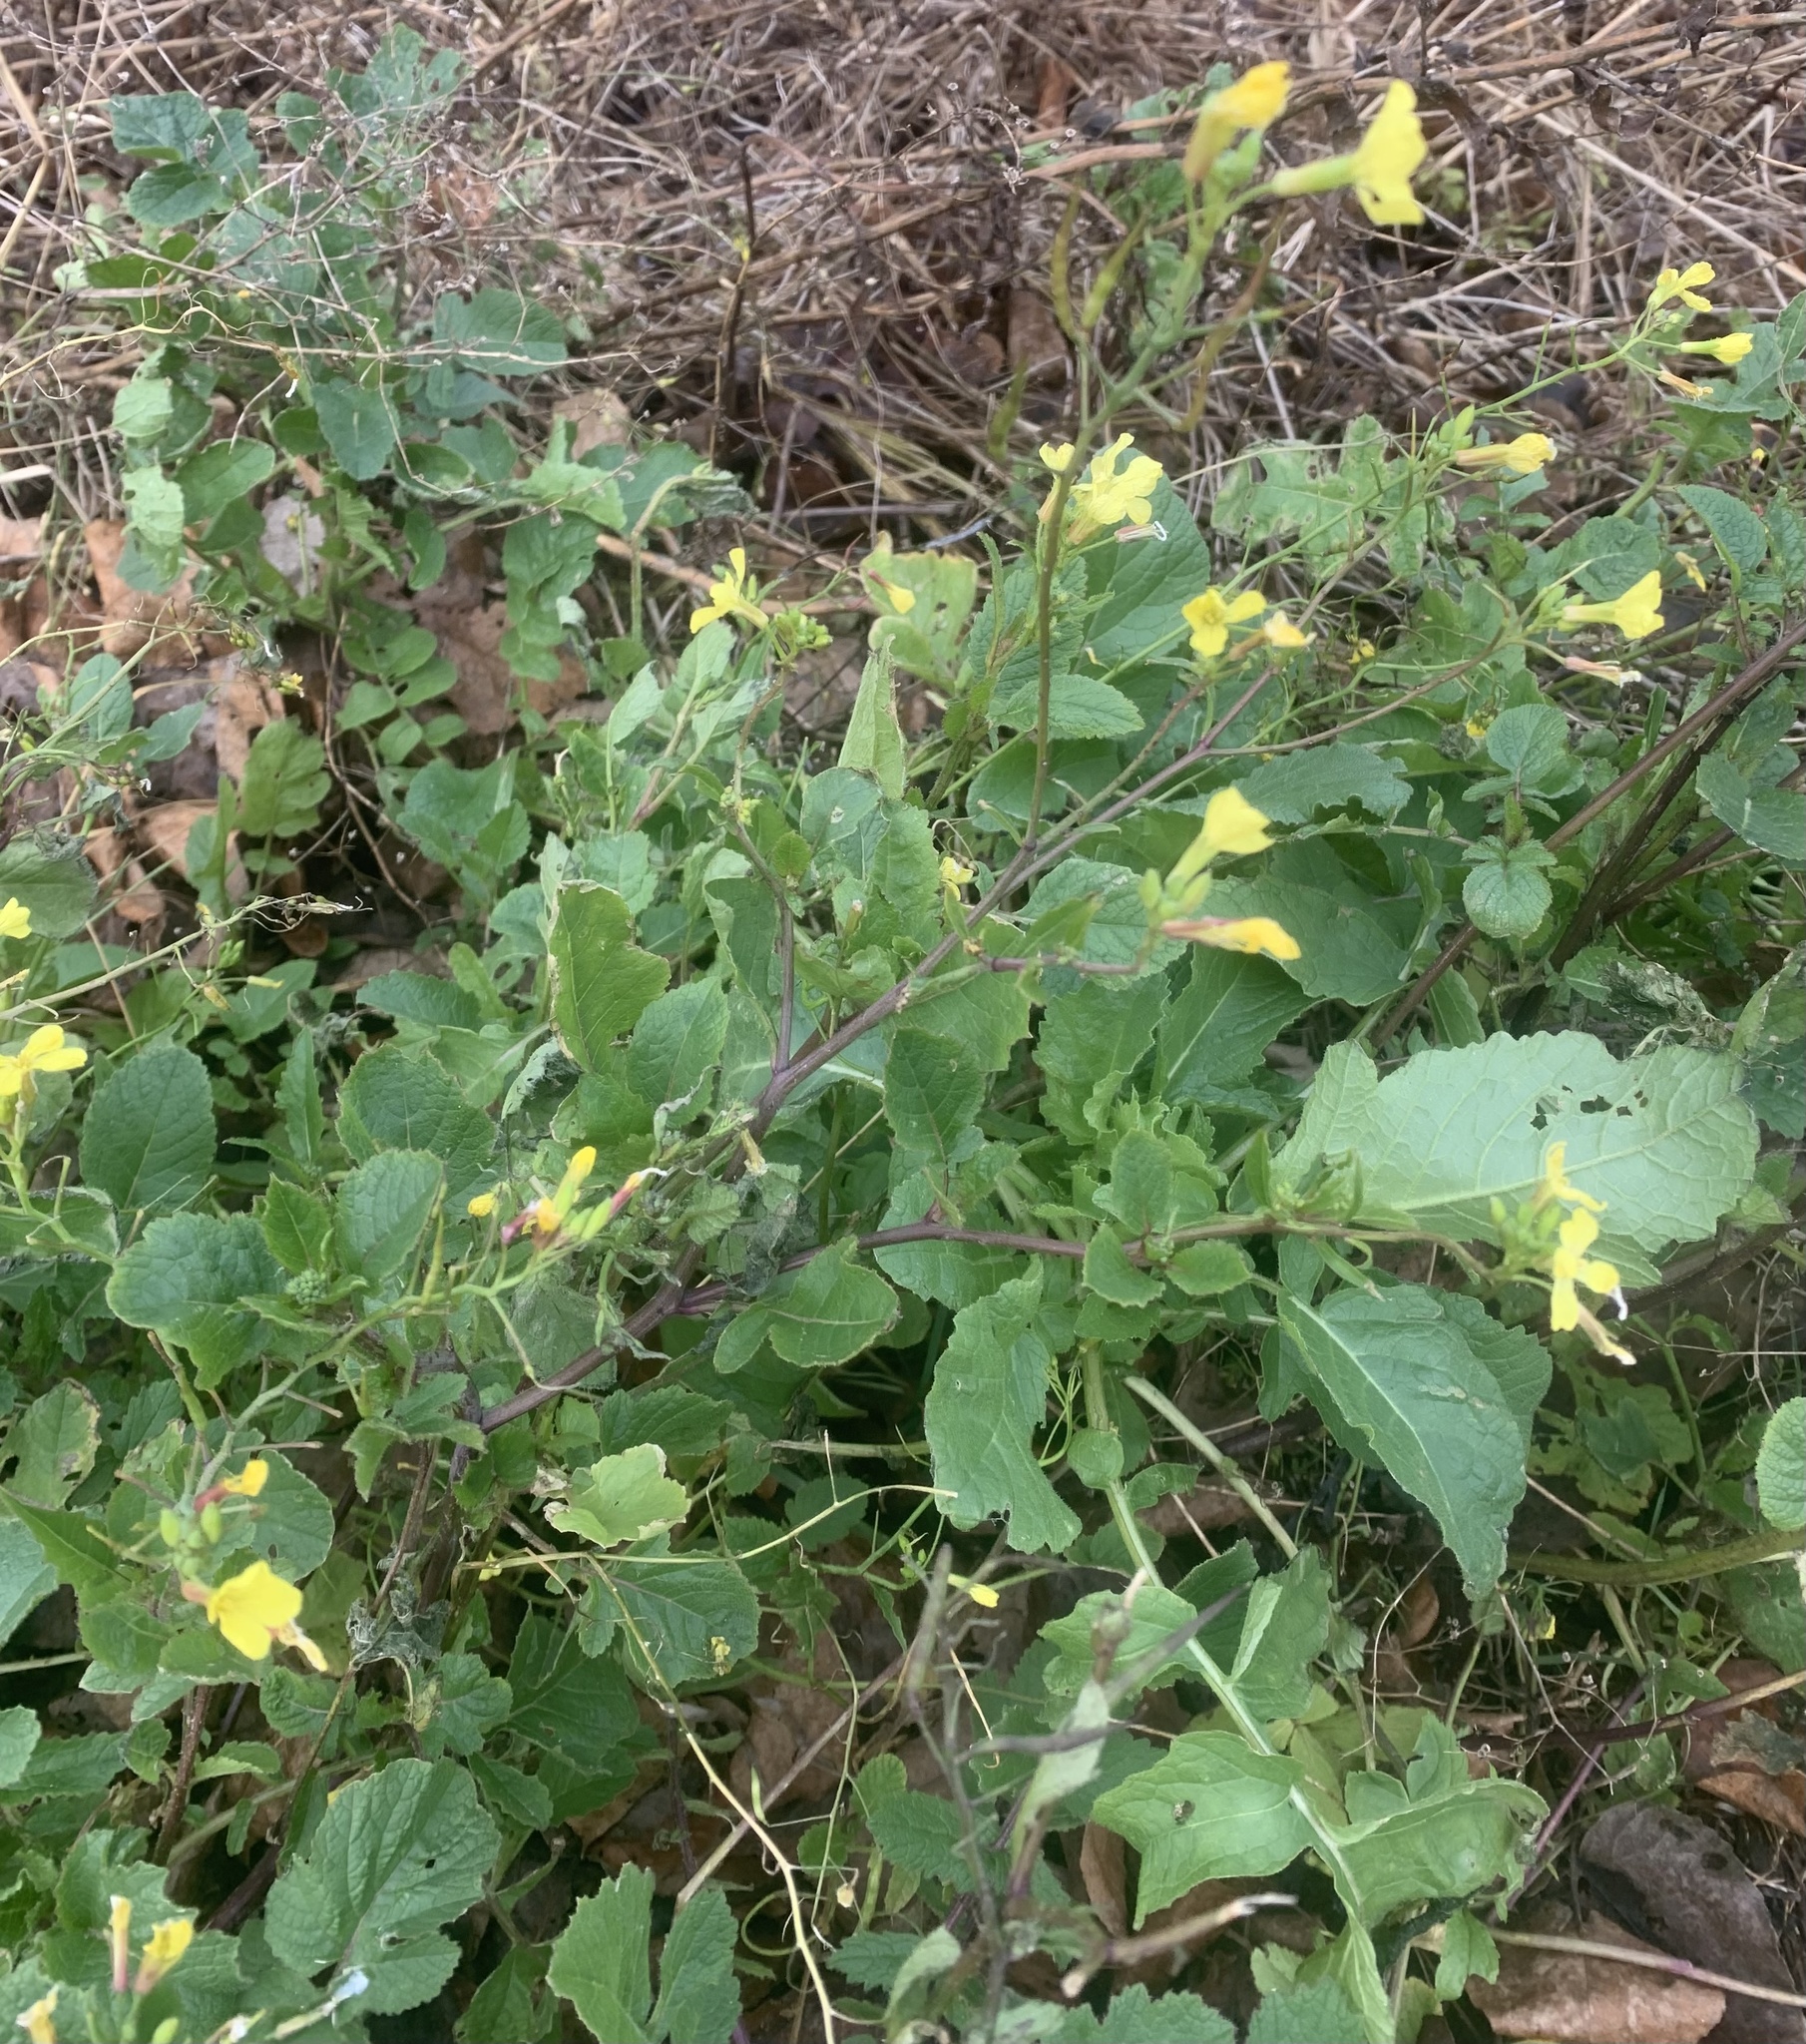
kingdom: Plantae
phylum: Tracheophyta
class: Magnoliopsida
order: Brassicales
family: Brassicaceae
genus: Raphanus
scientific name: Raphanus raphanistrum
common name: Wild radish
